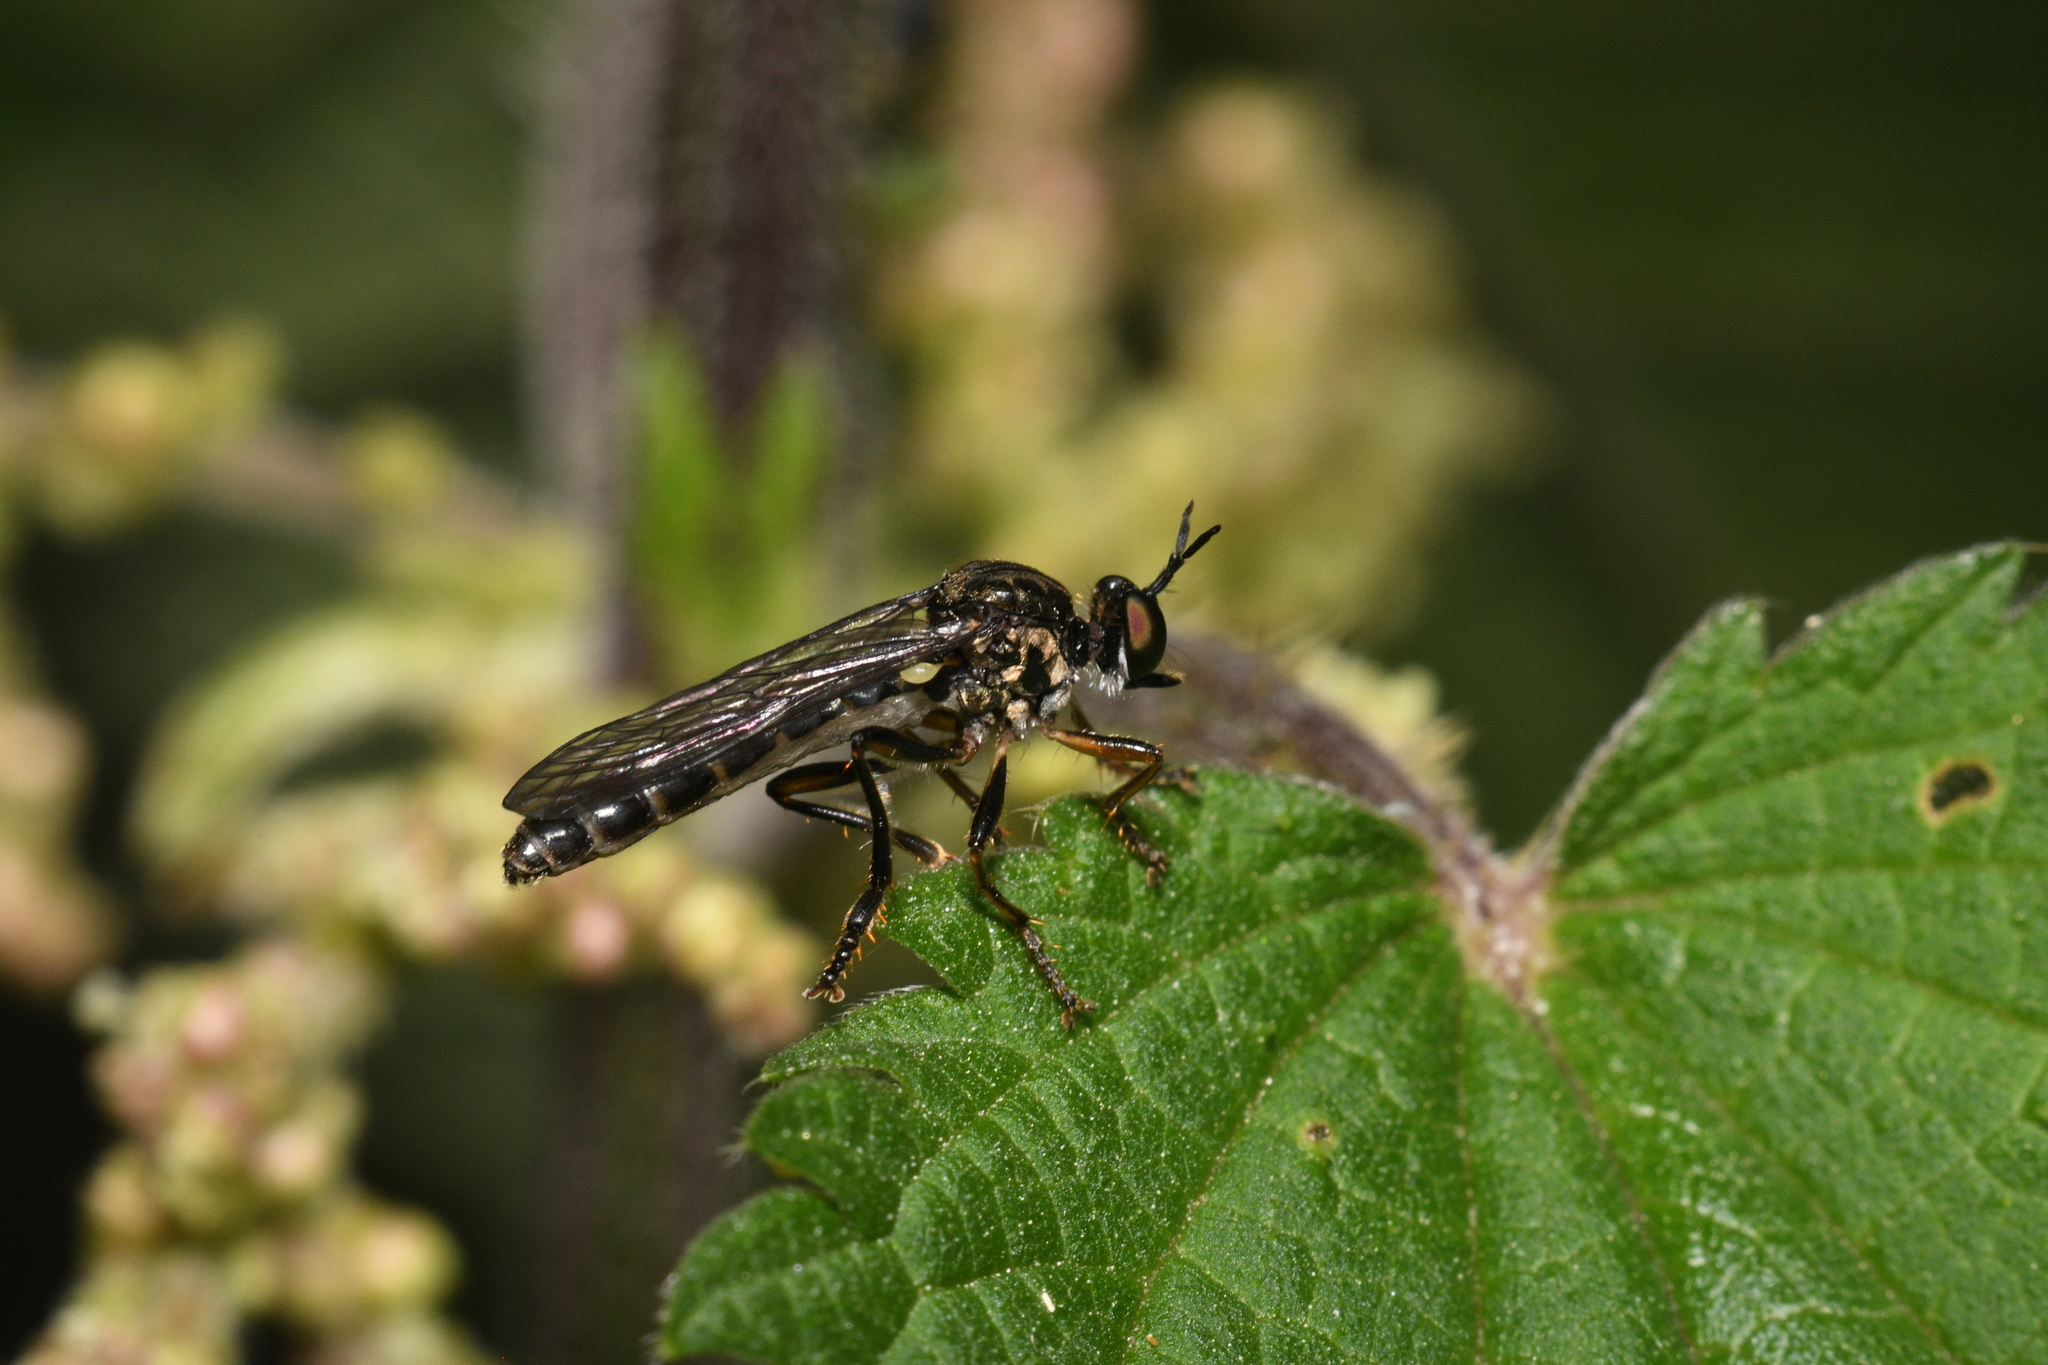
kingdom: Animalia
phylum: Arthropoda
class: Insecta
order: Diptera
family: Asilidae
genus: Dioctria
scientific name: Dioctria hyalipennis
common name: Stripe-legged robberfly
